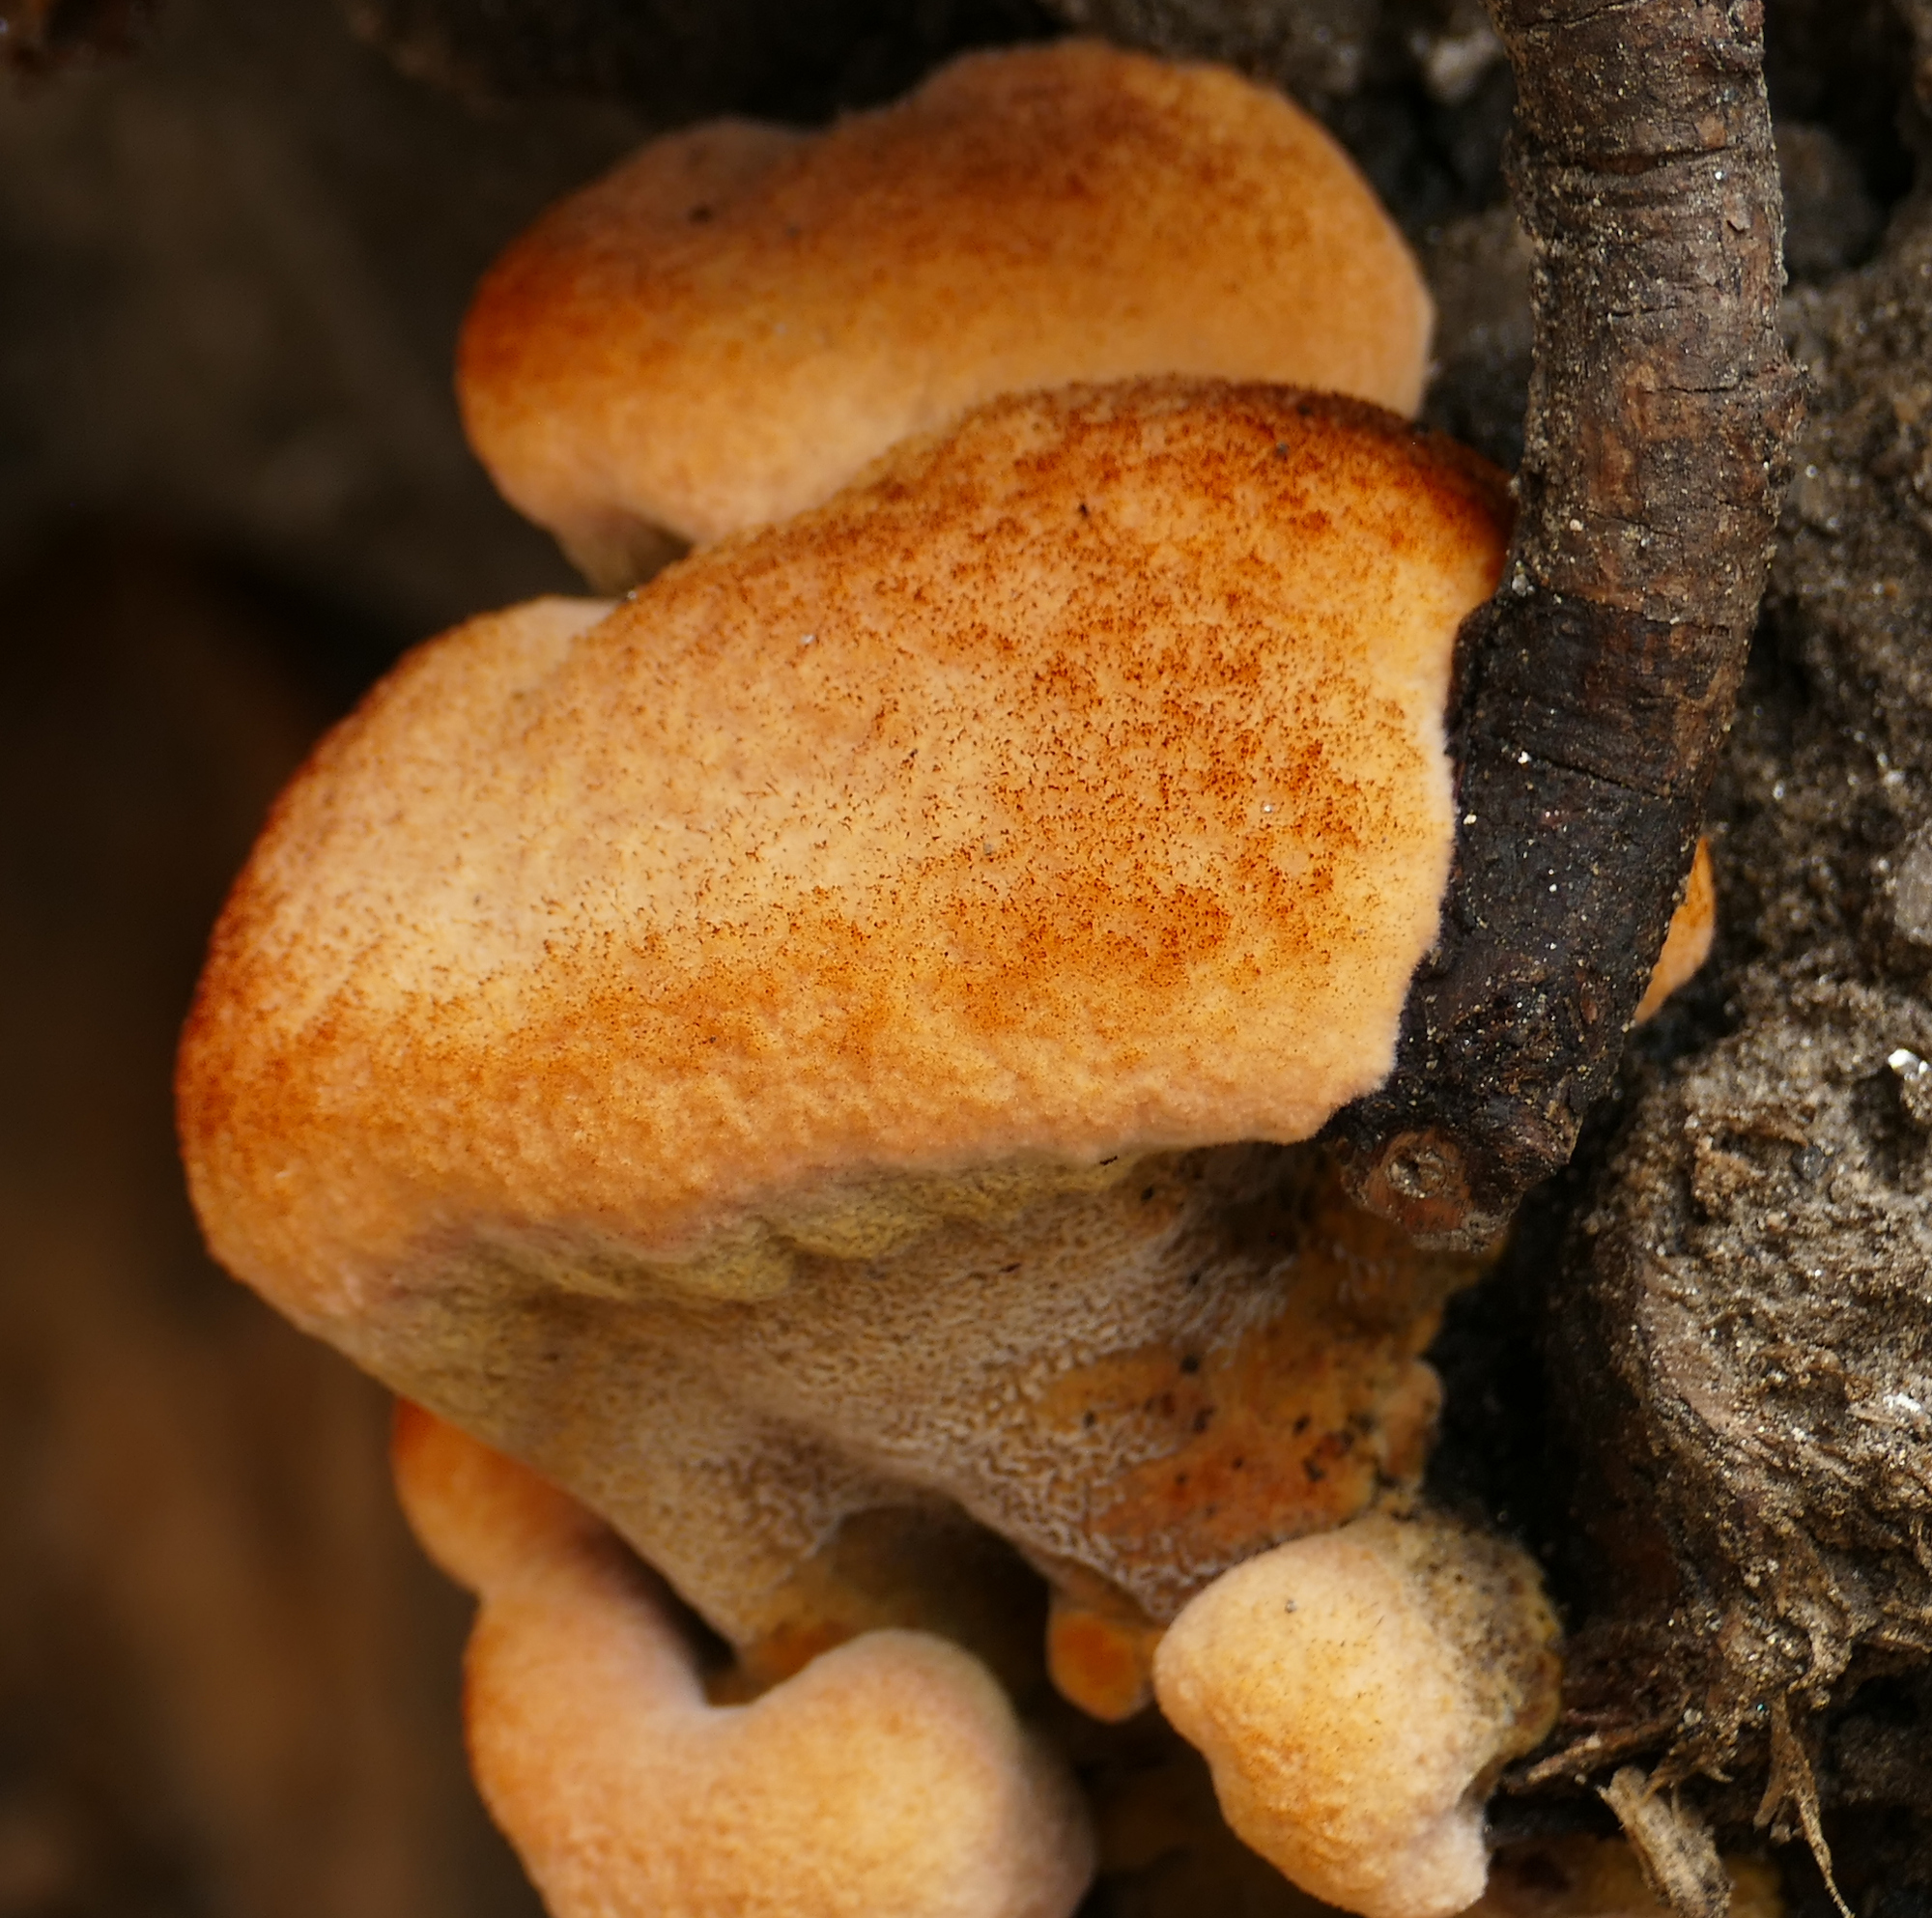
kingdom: Fungi
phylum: Basidiomycota
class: Agaricomycetes
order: Polyporales
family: Laetiporaceae
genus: Phaeolus
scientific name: Phaeolus schweinitzii
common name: Dyer's mazegill
